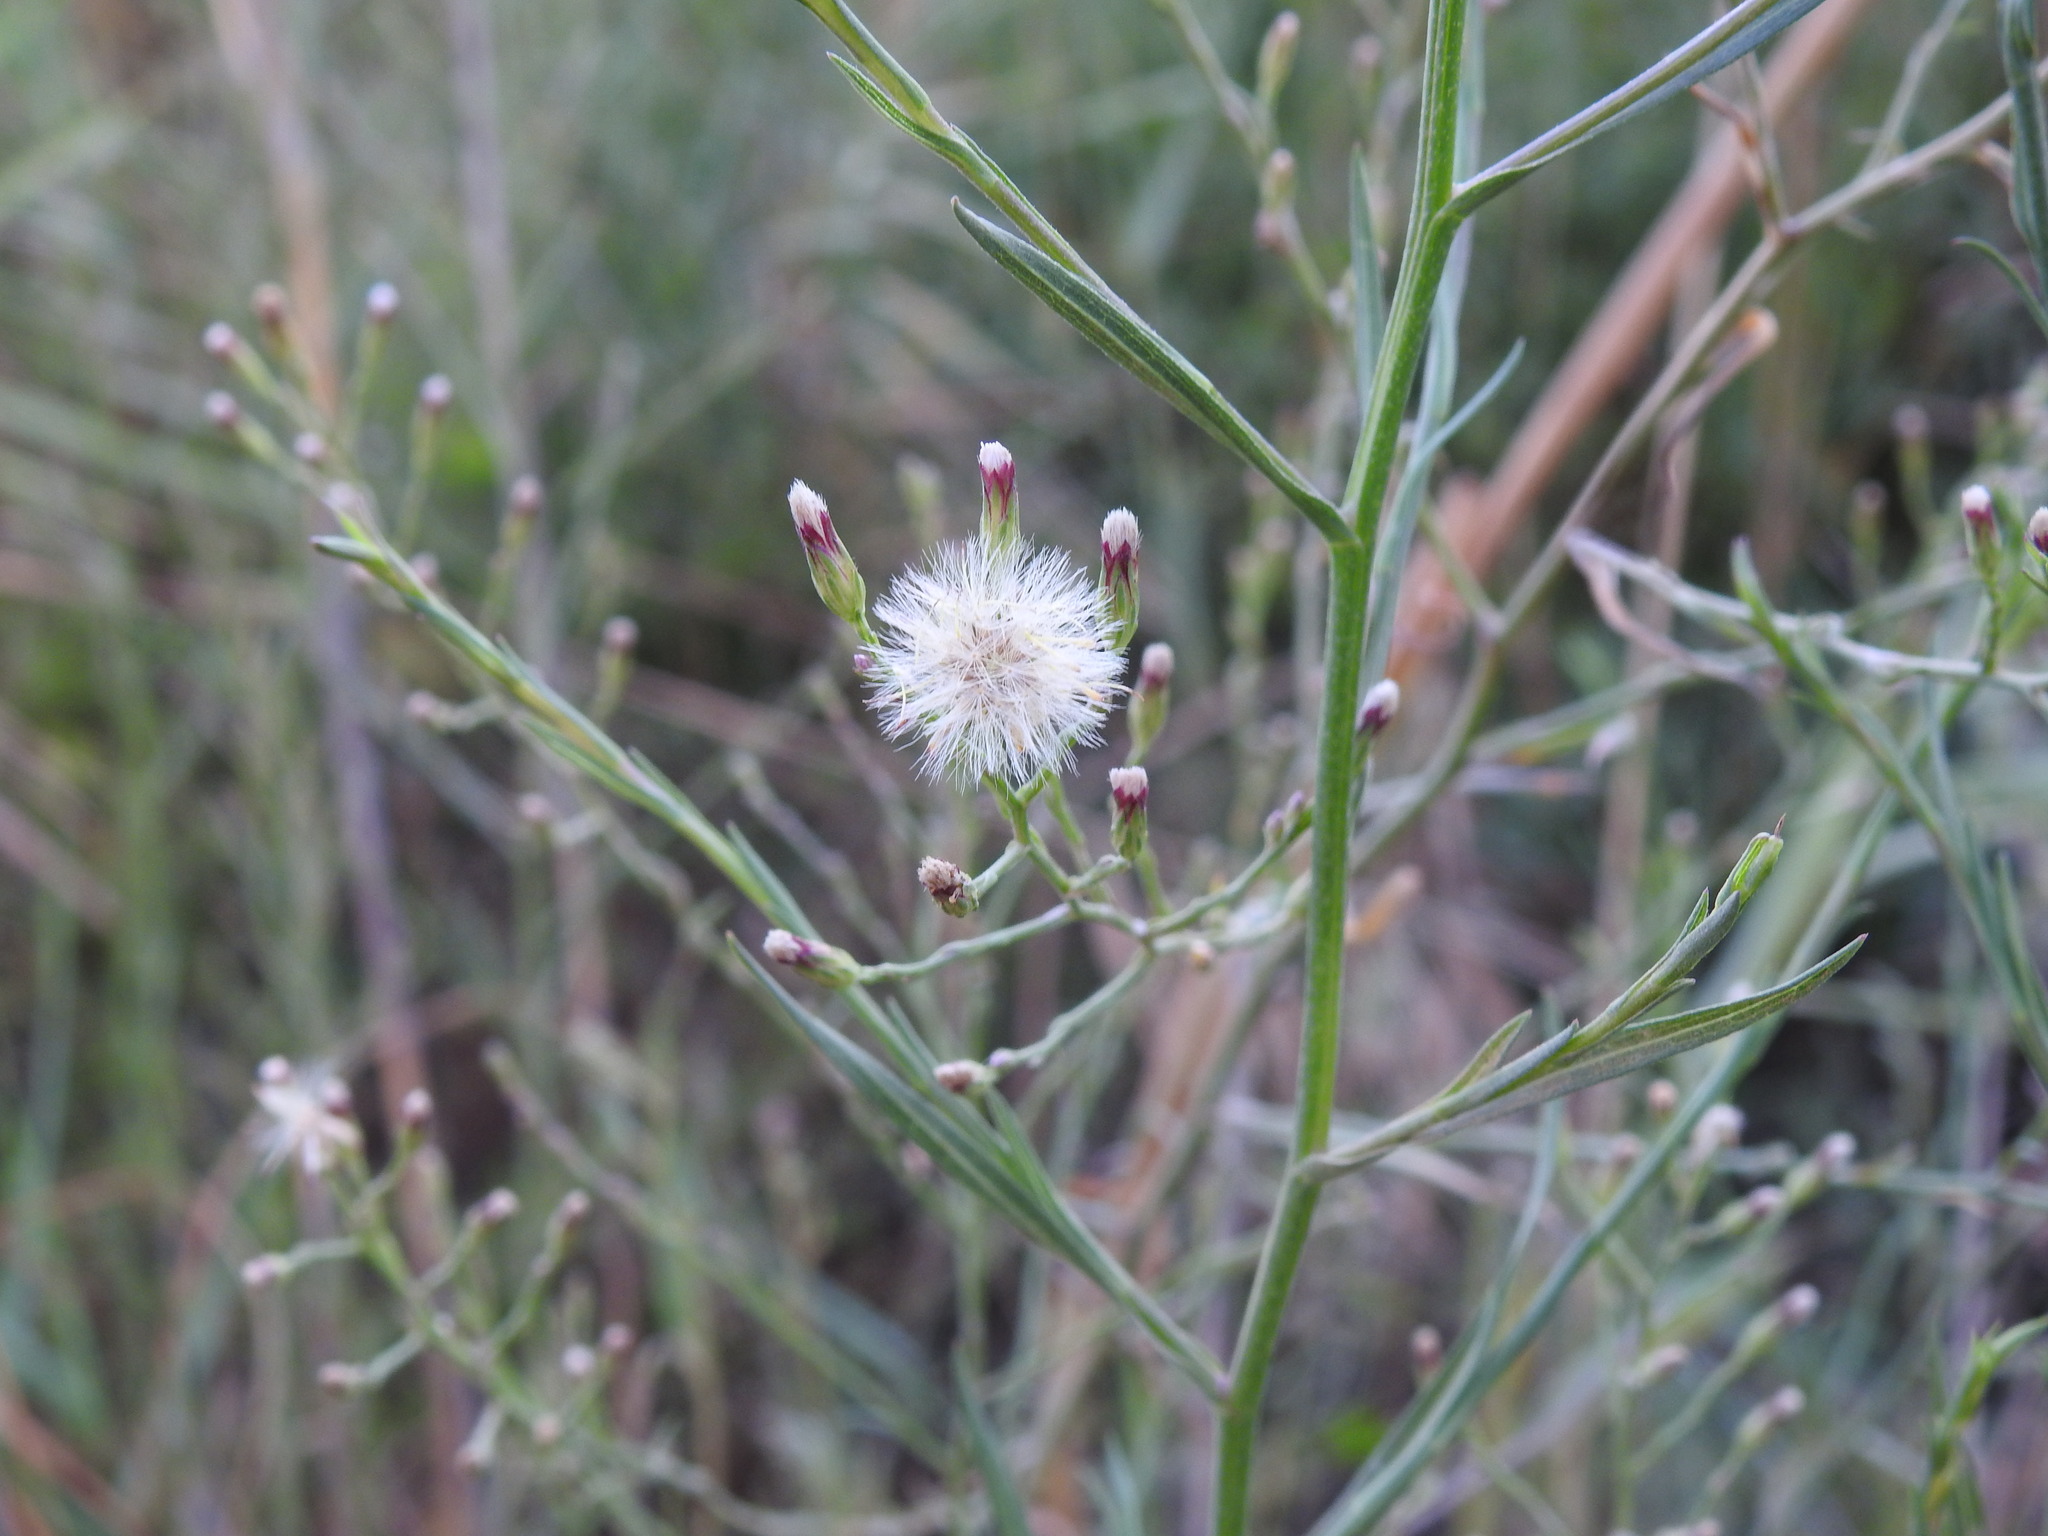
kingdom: Plantae
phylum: Tracheophyta
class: Magnoliopsida
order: Asterales
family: Asteraceae
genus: Symphyotrichum
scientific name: Symphyotrichum squamatum
